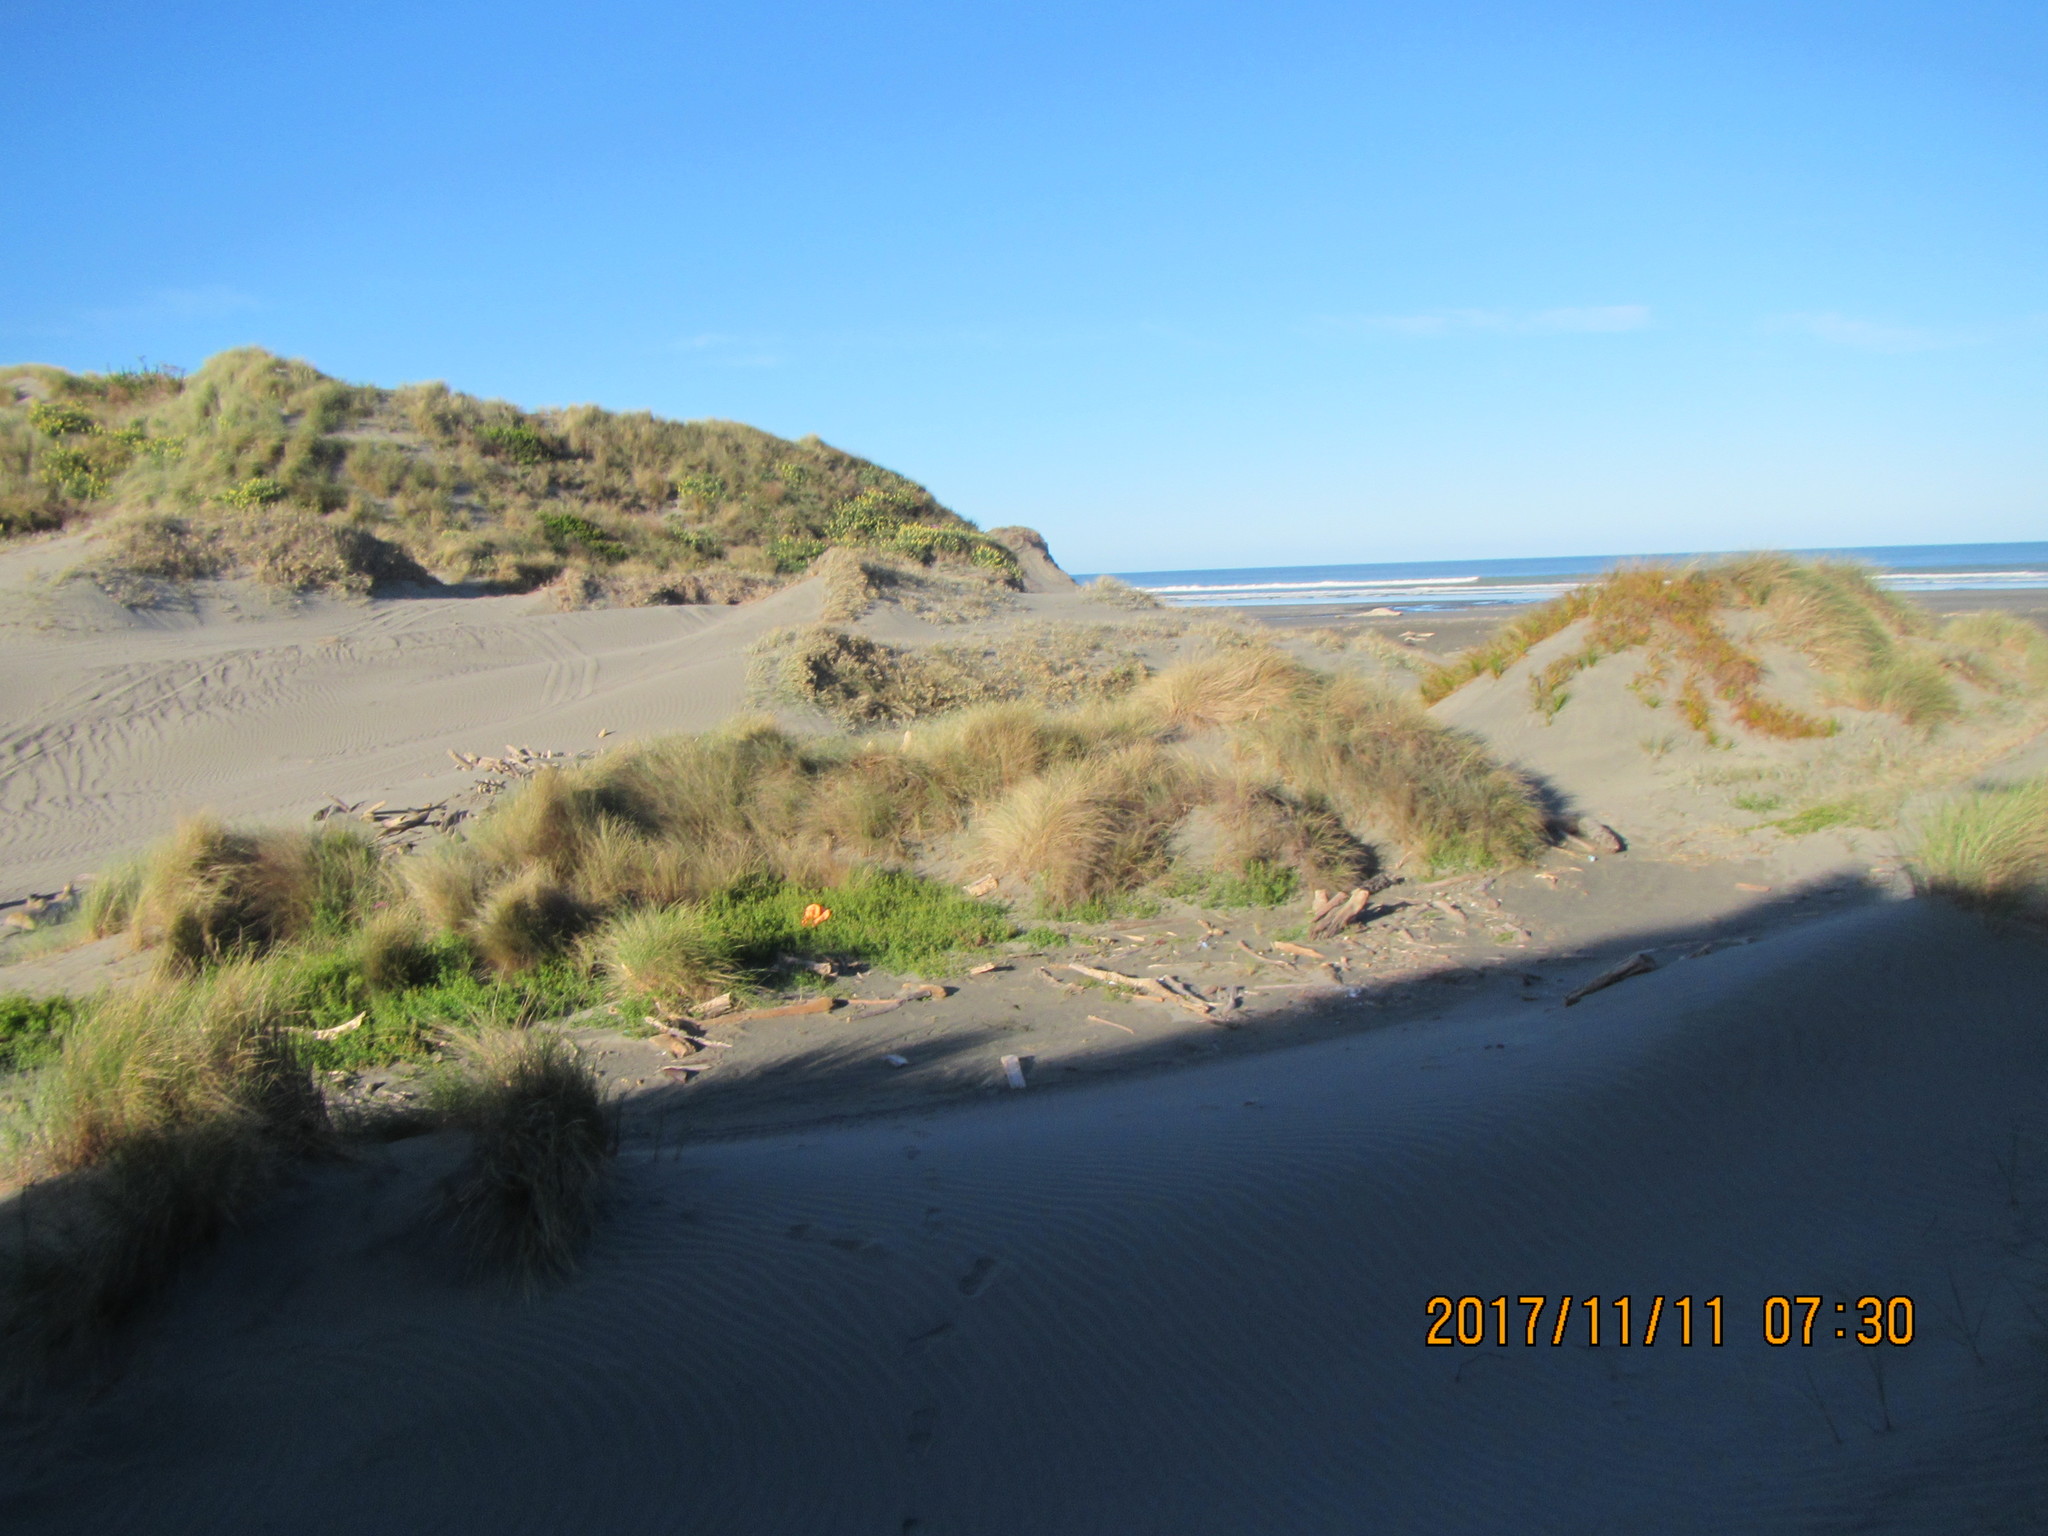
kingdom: Plantae
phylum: Tracheophyta
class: Magnoliopsida
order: Fabales
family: Fabaceae
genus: Melilotus
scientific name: Melilotus indicus
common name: Small melilot
